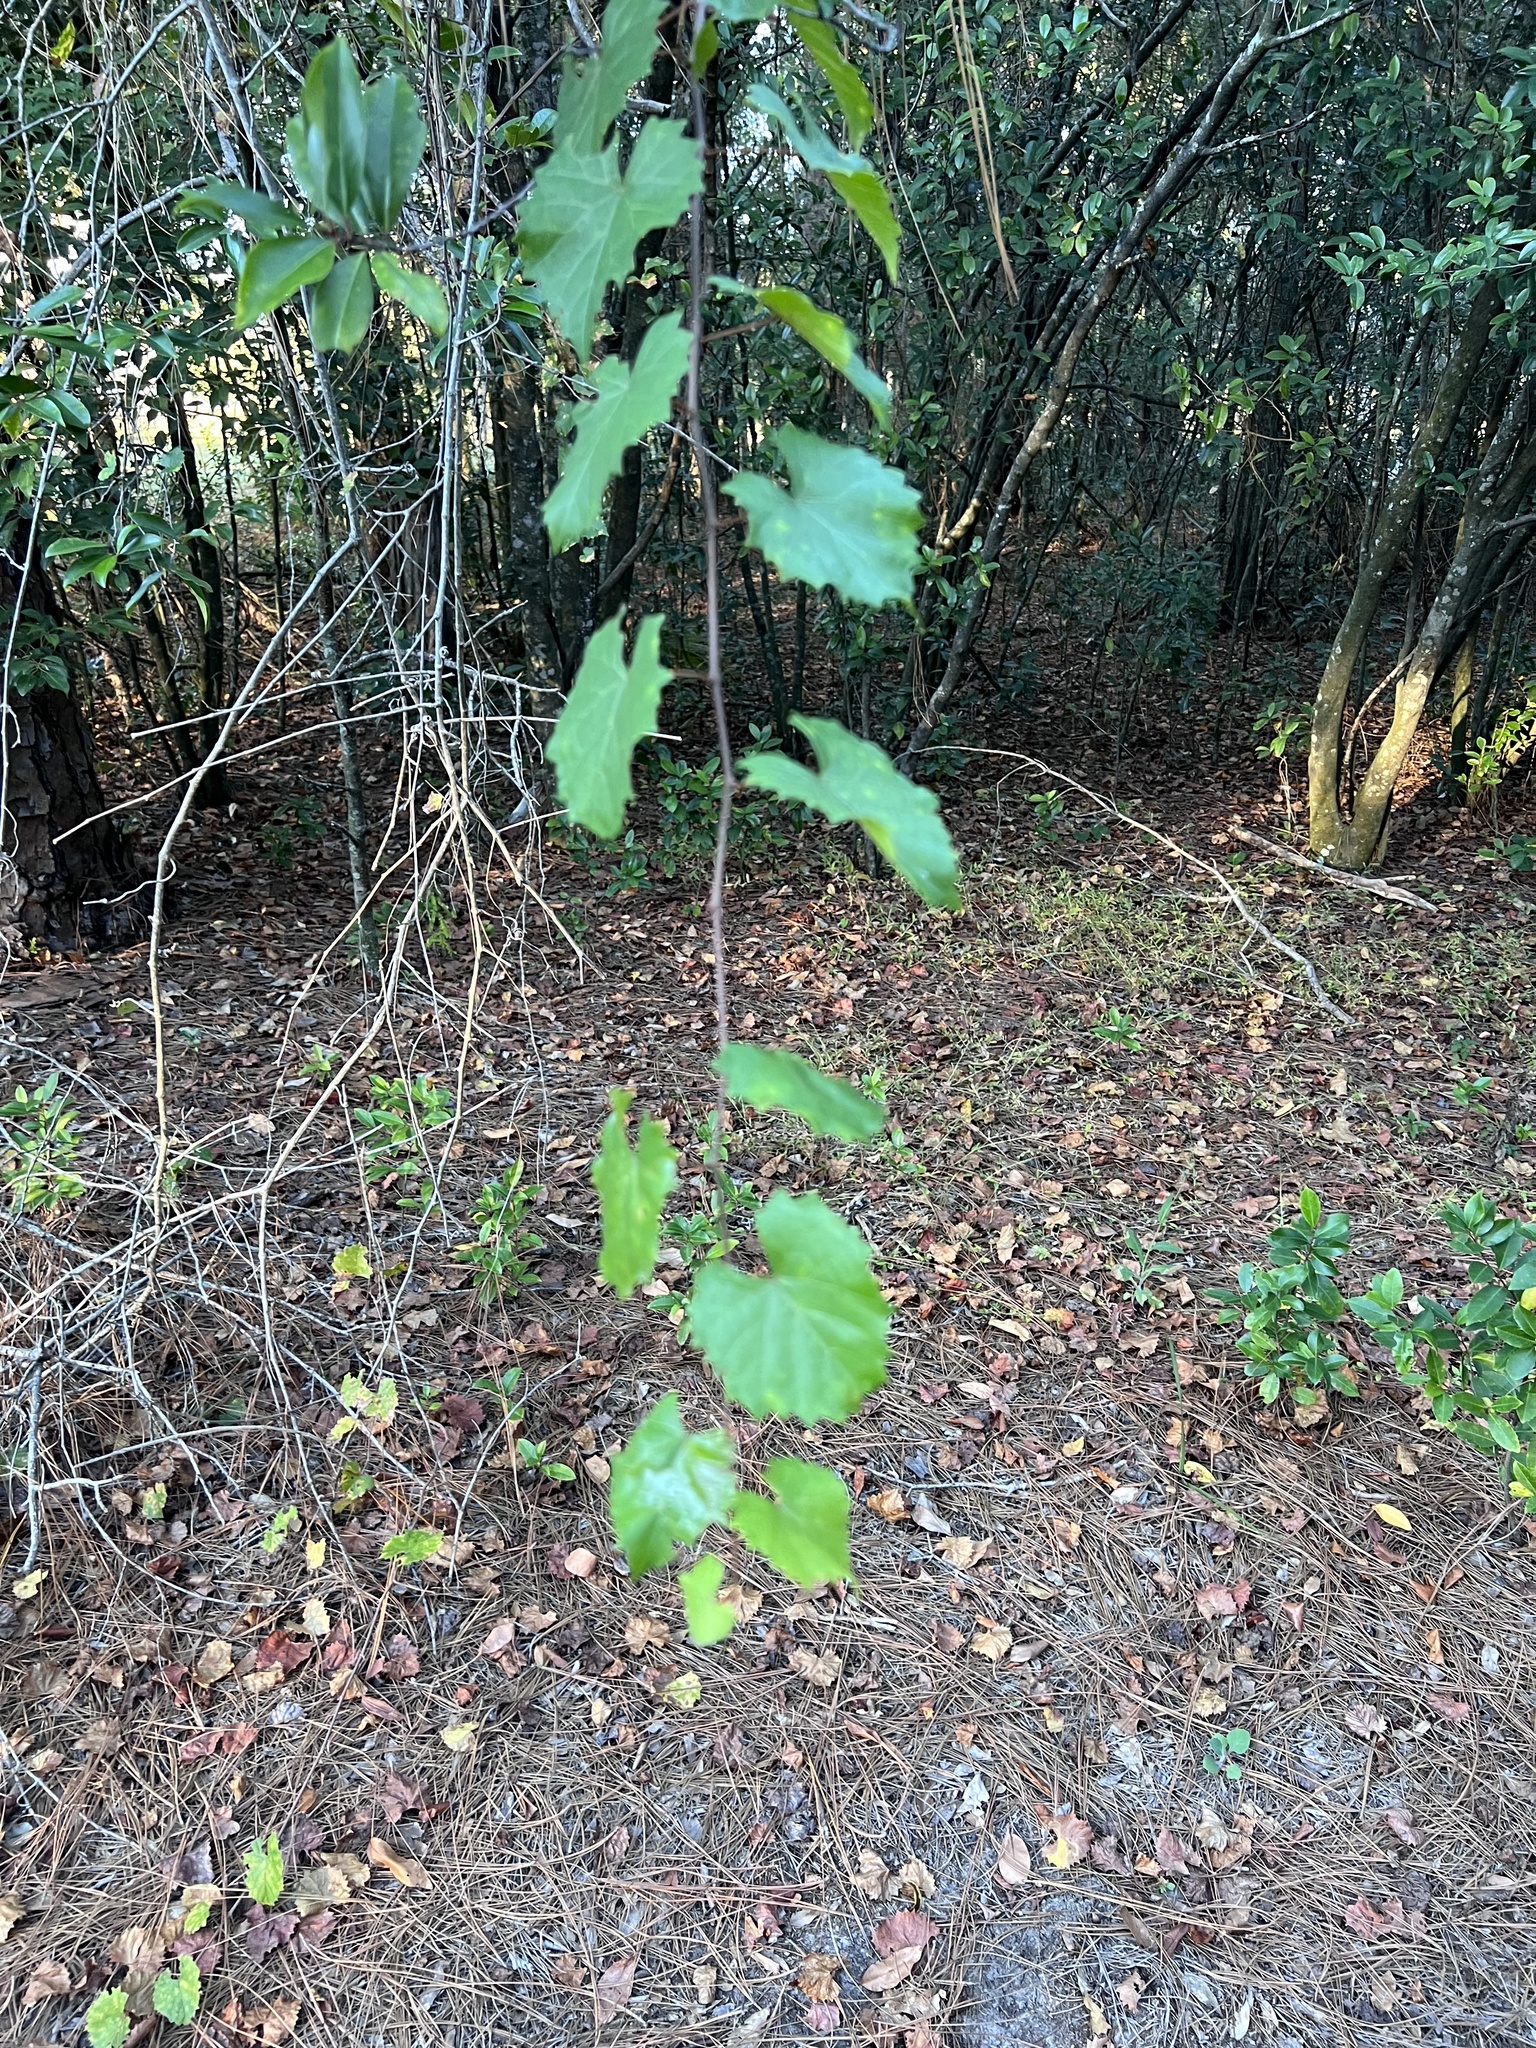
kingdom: Plantae
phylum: Tracheophyta
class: Magnoliopsida
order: Vitales
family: Vitaceae
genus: Vitis
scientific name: Vitis rotundifolia
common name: Muscadine grape
